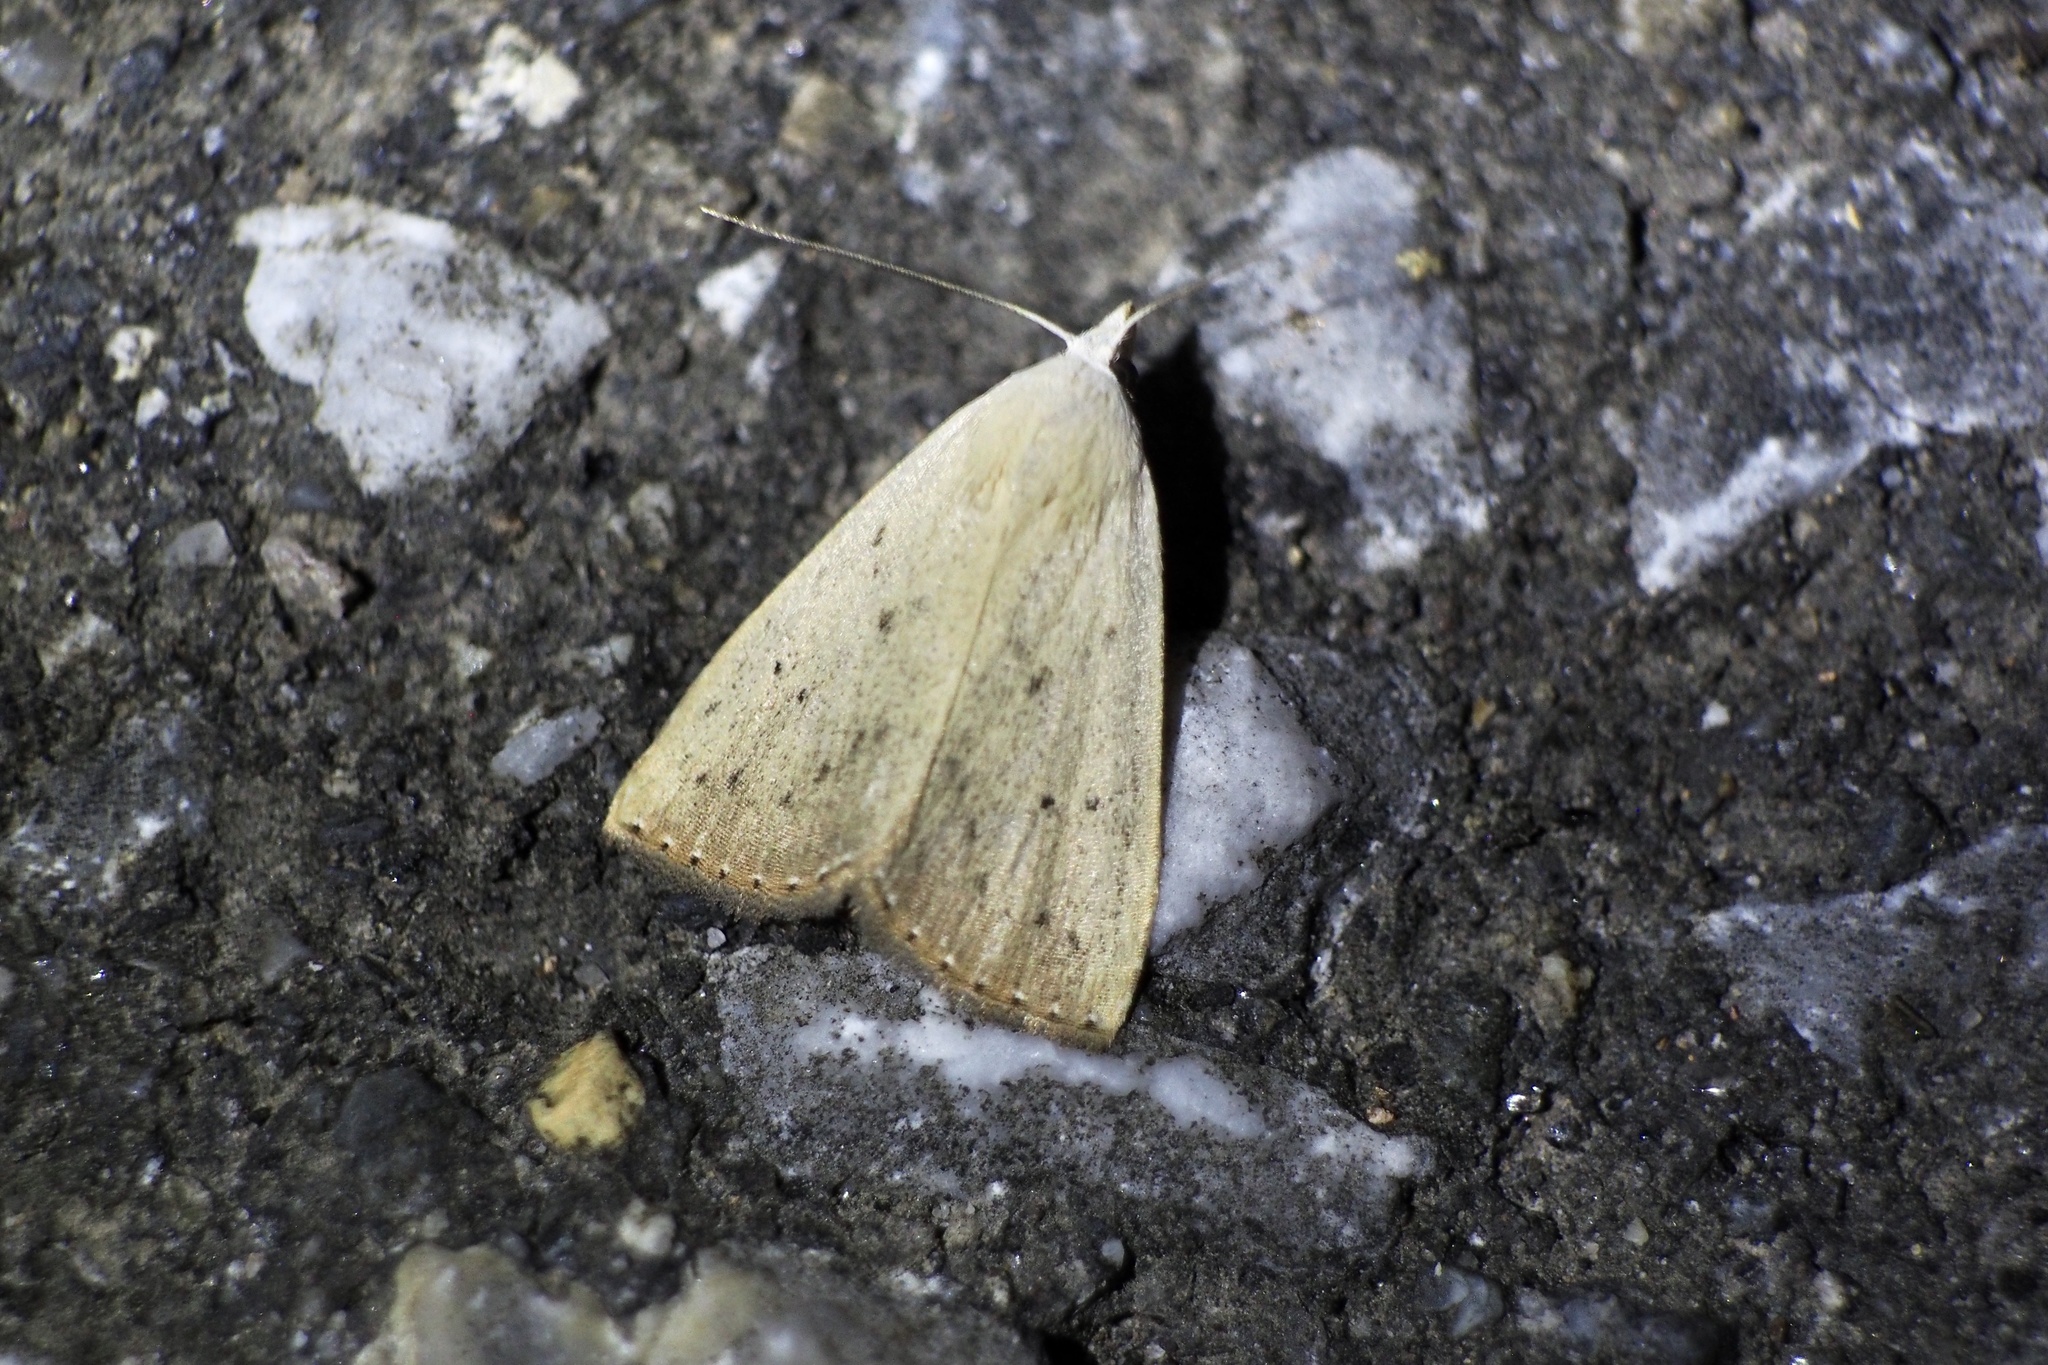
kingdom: Animalia
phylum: Arthropoda
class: Insecta
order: Lepidoptera
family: Erebidae
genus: Rivula
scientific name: Rivula aequalis
